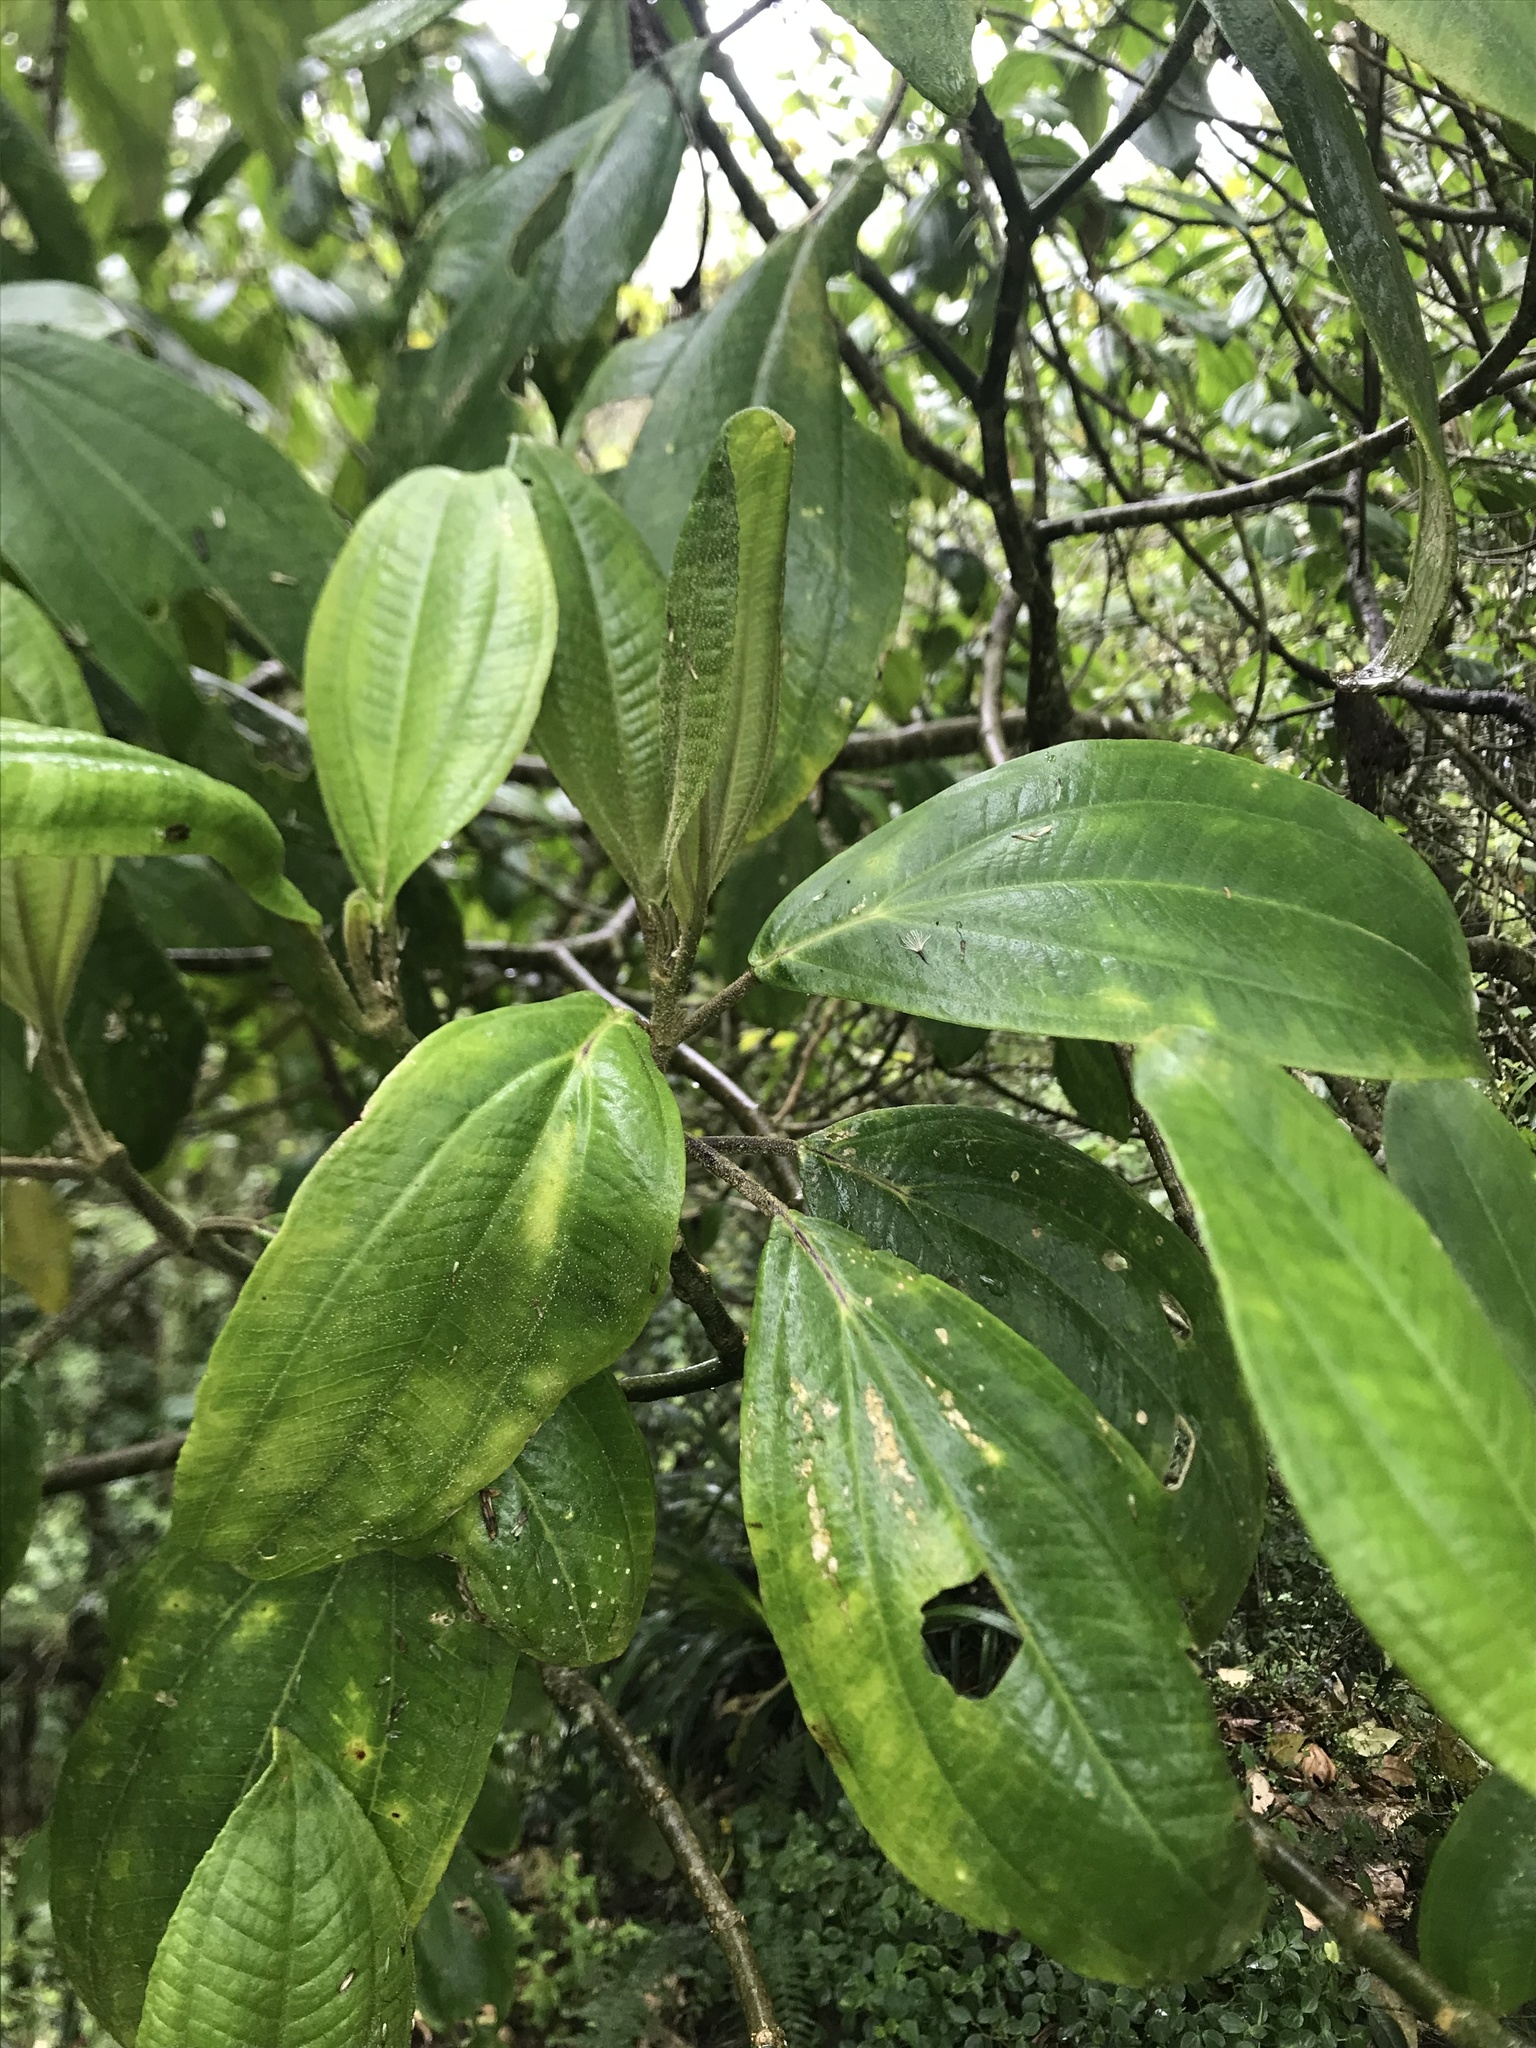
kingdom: Plantae
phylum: Tracheophyta
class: Magnoliopsida
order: Myrtales
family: Melastomataceae
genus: Meriania
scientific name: Meriania quintuplinervis
